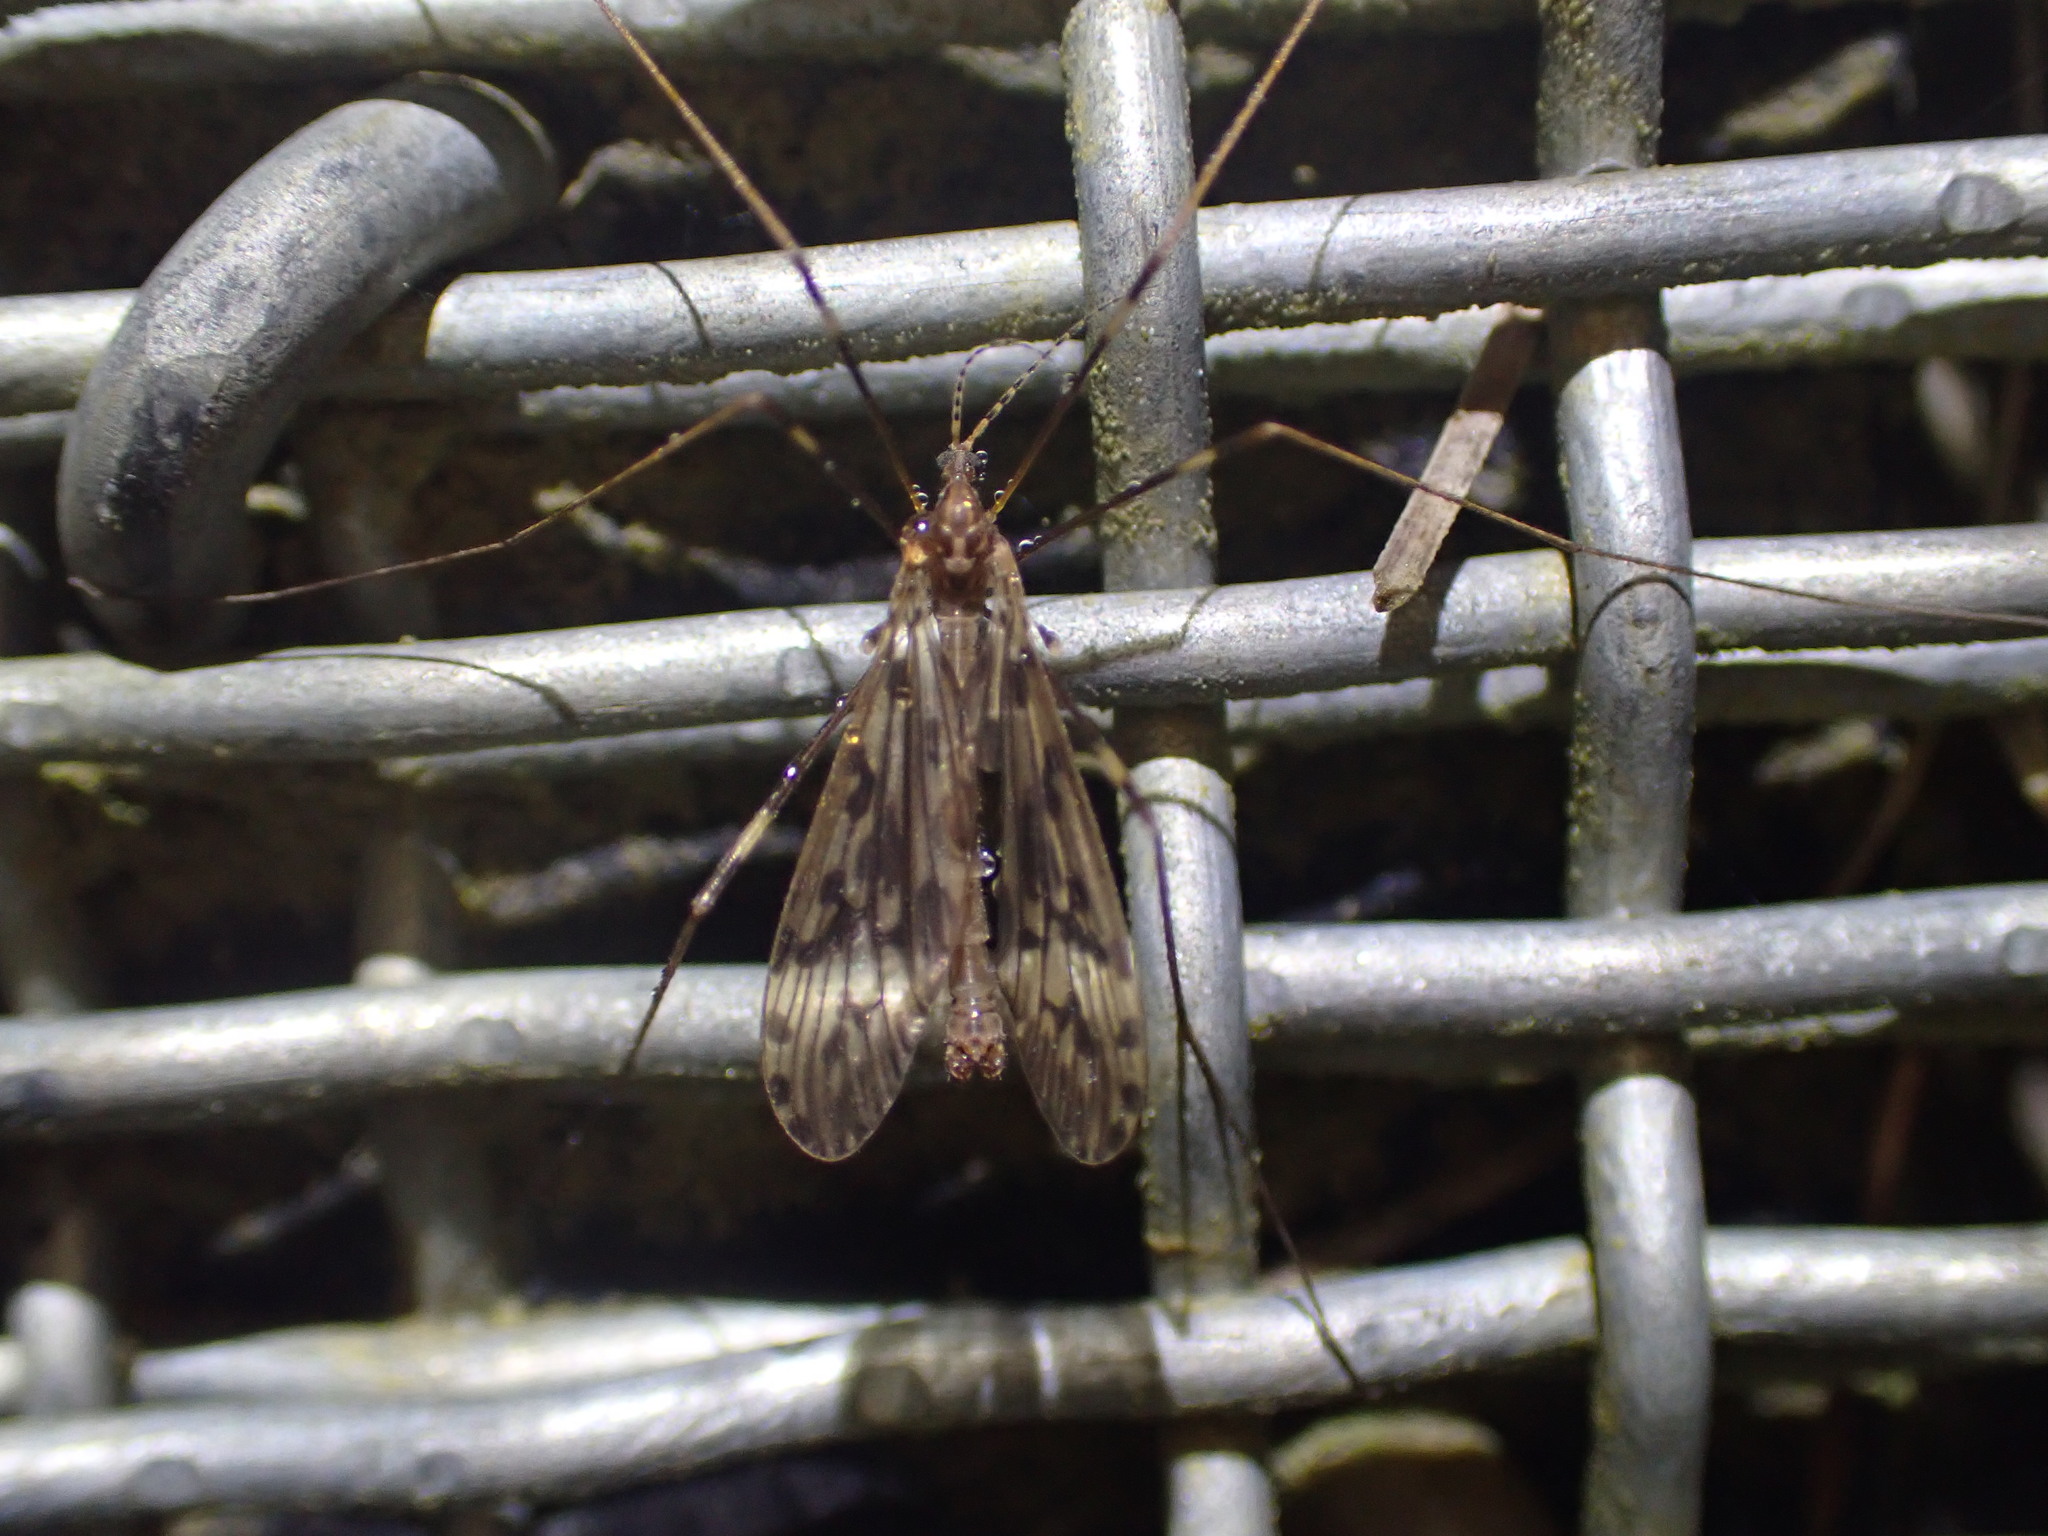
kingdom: Animalia
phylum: Arthropoda
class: Insecta
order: Diptera
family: Limoniidae
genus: Austrolimnophila
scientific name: Austrolimnophila agathicola
